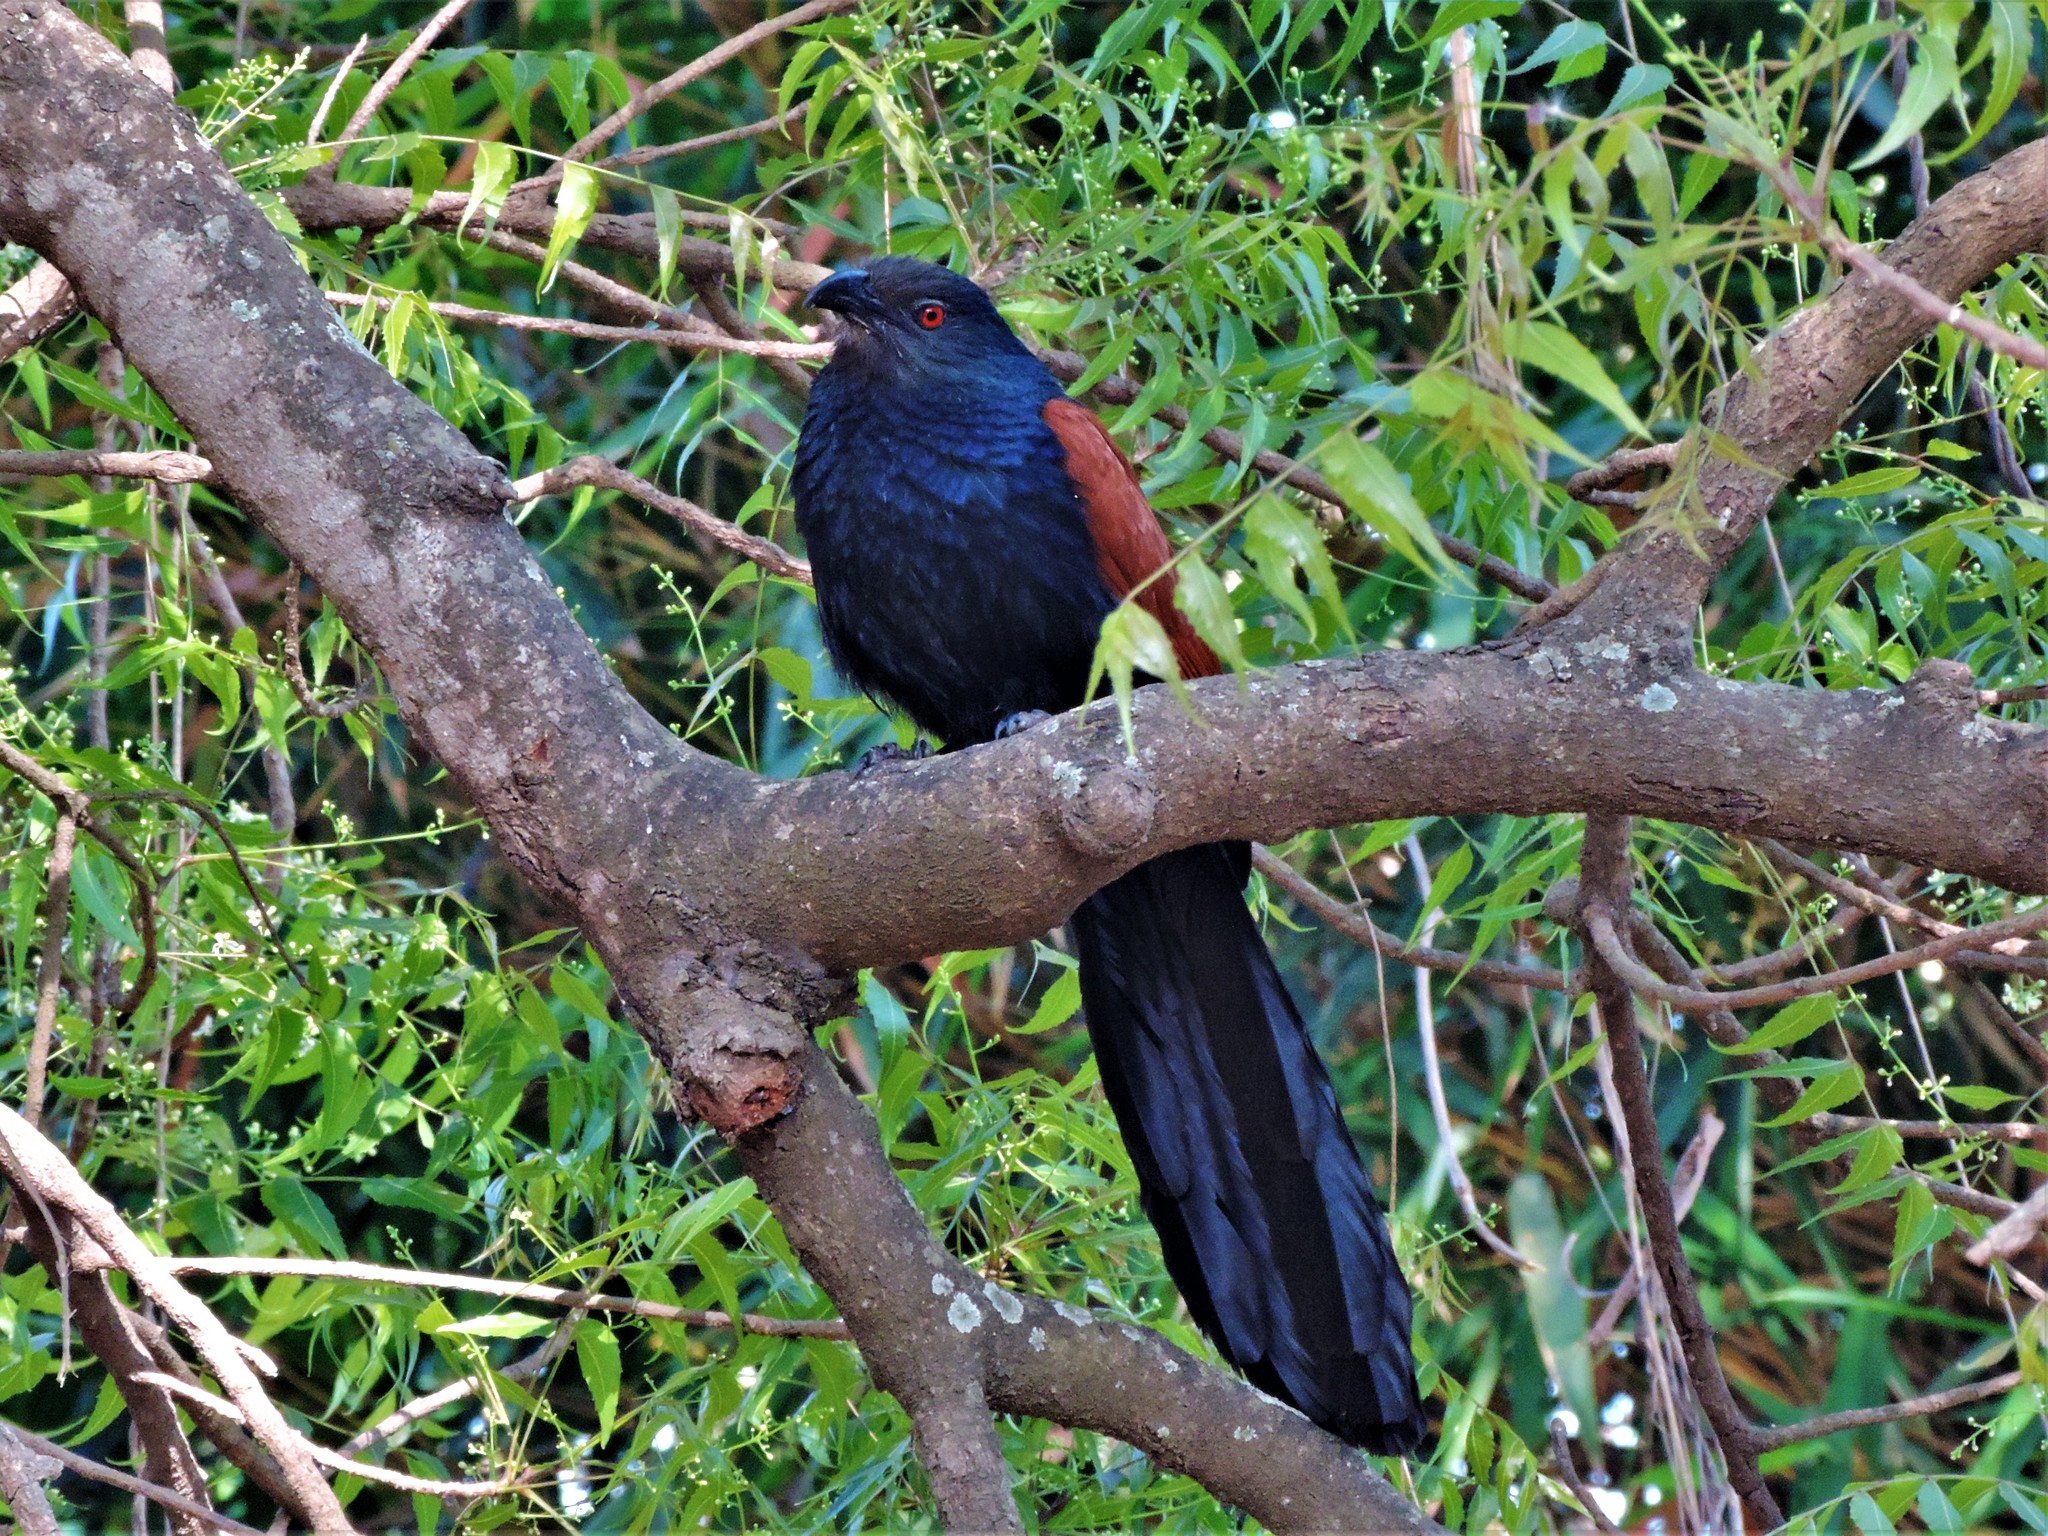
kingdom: Animalia
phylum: Chordata
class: Aves
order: Cuculiformes
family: Cuculidae
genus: Centropus
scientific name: Centropus sinensis
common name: Greater coucal
